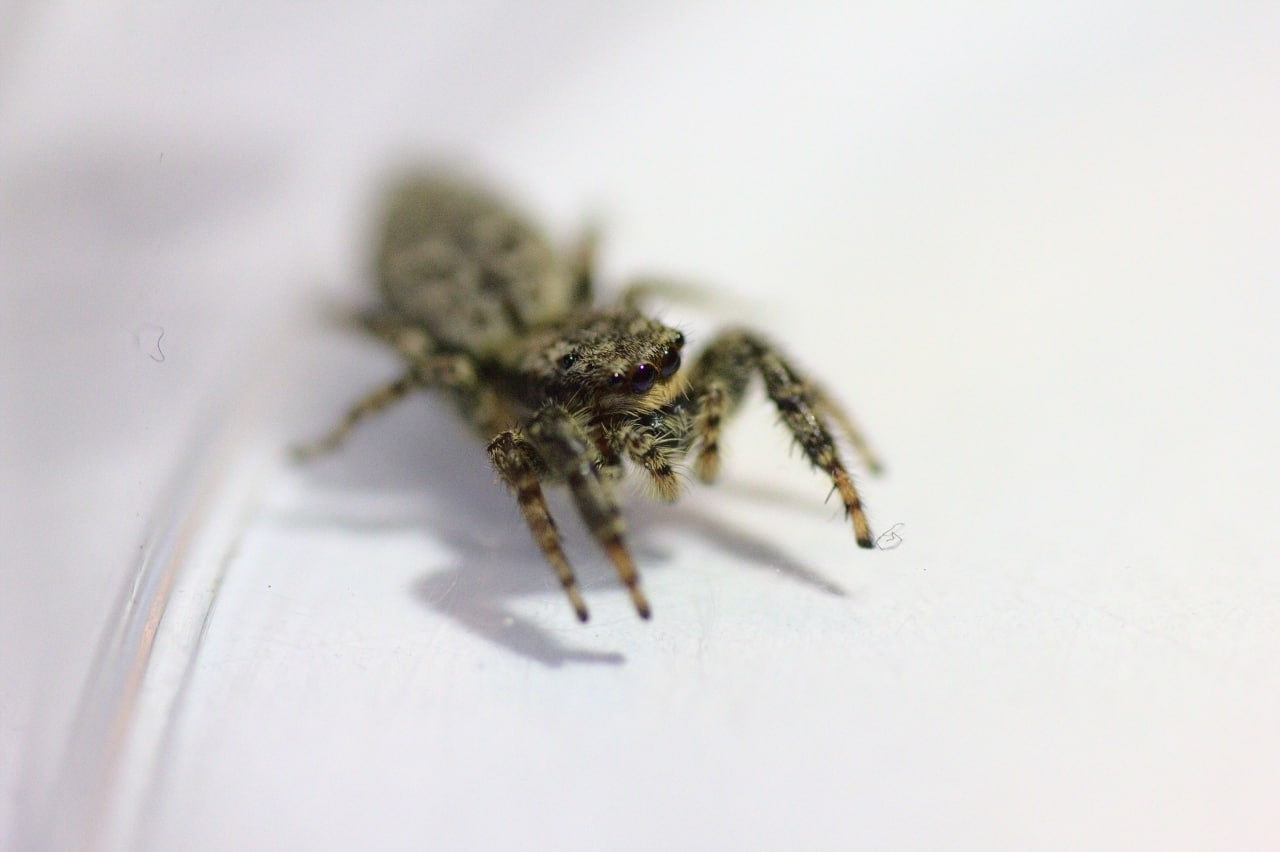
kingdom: Animalia
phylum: Arthropoda
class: Arachnida
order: Araneae
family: Salticidae
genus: Marpissa
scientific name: Marpissa muscosa
